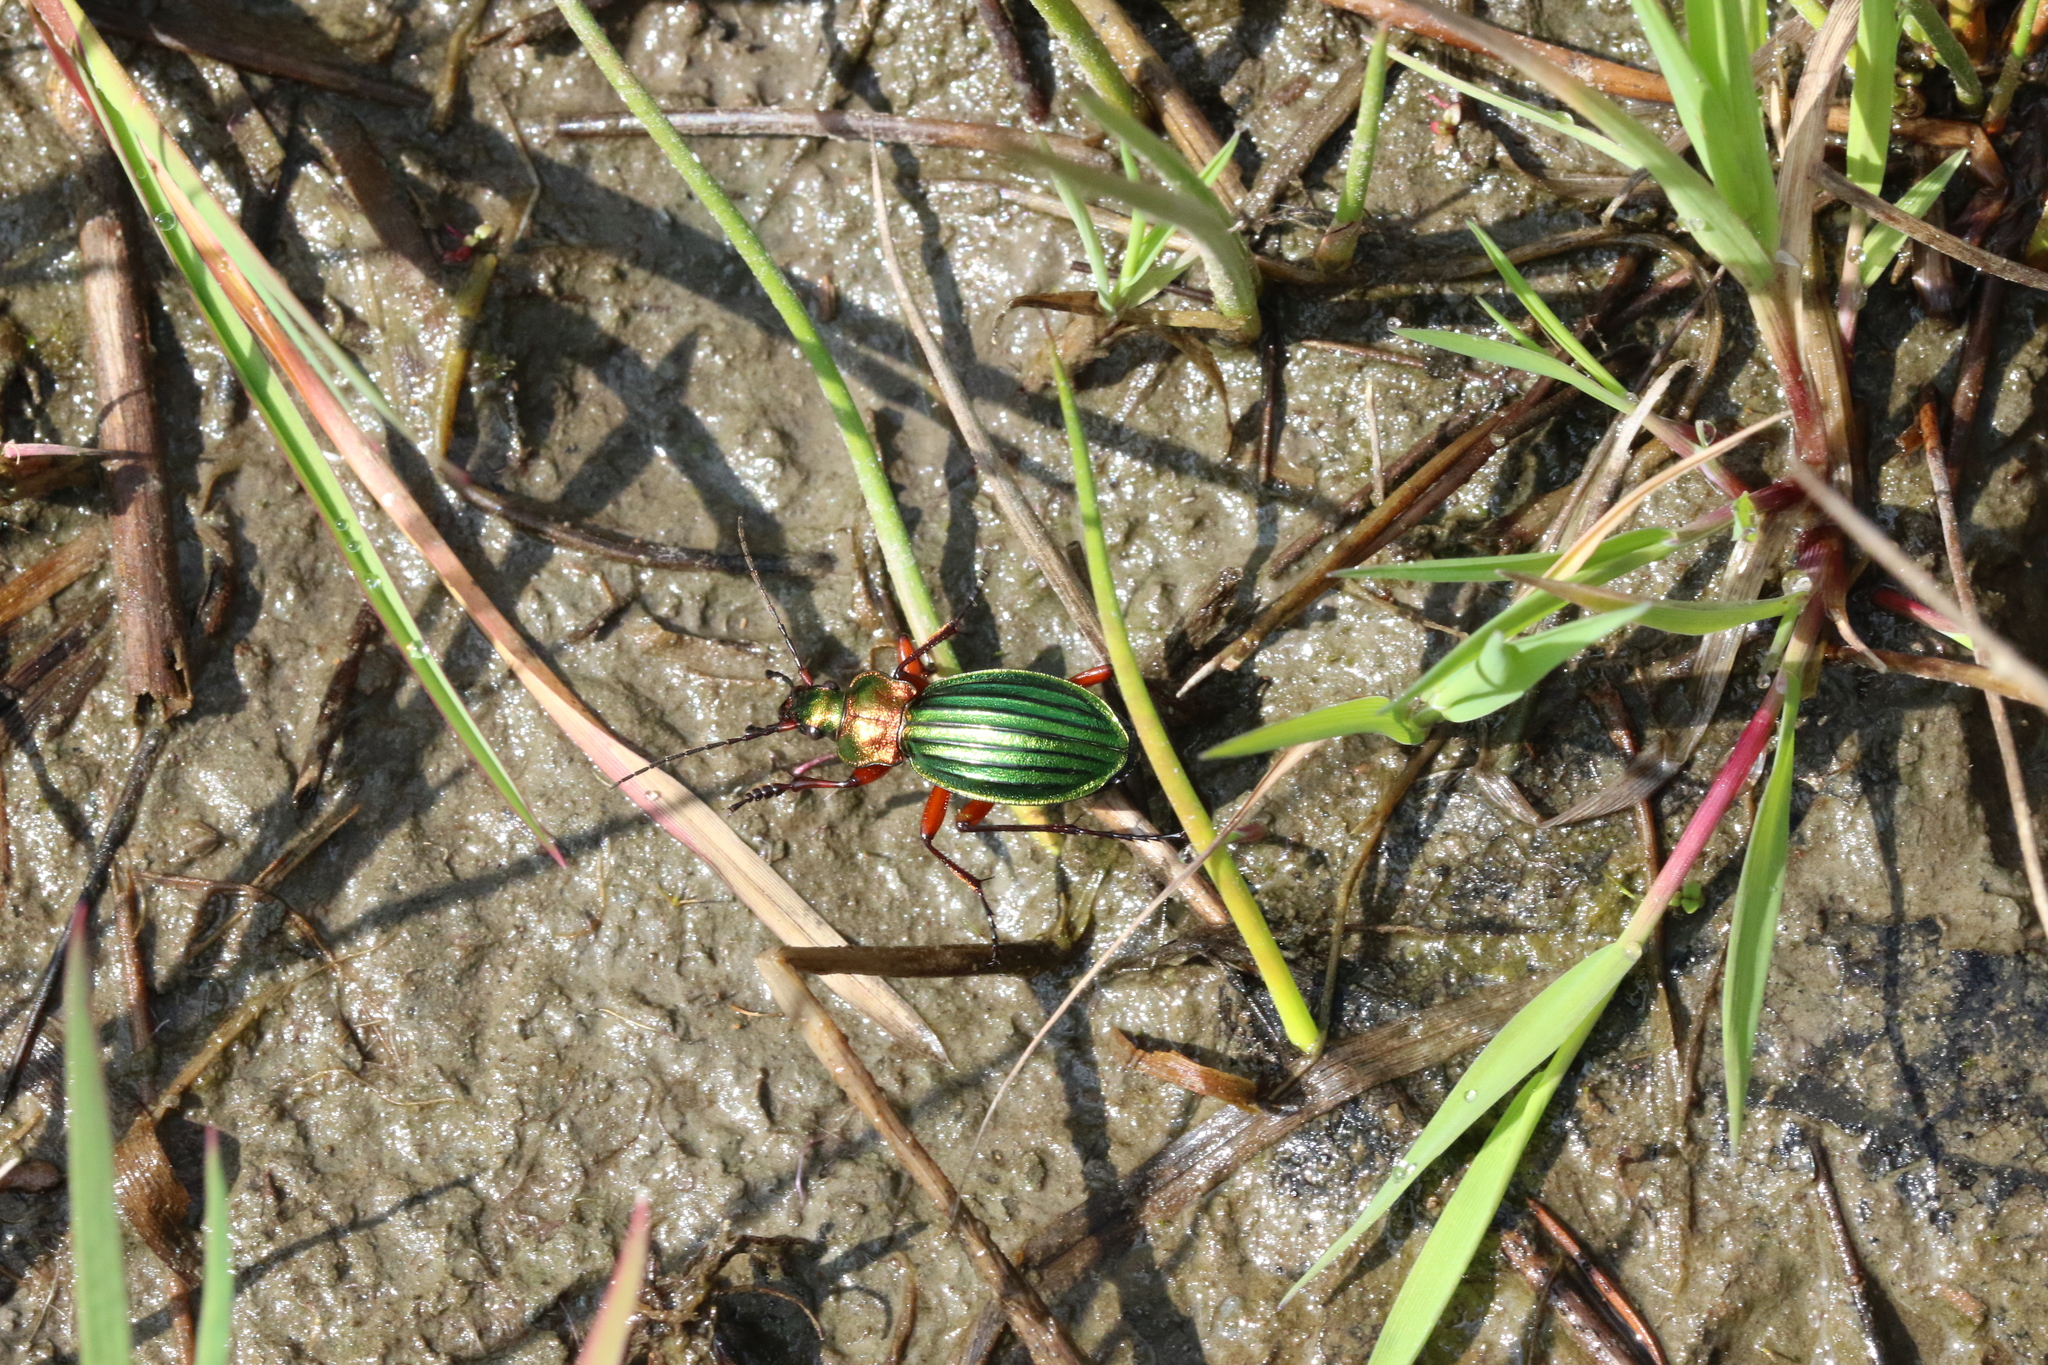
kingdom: Animalia
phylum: Arthropoda
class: Insecta
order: Coleoptera
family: Carabidae
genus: Carabus
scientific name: Carabus auronitens
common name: Carabus auronitens
